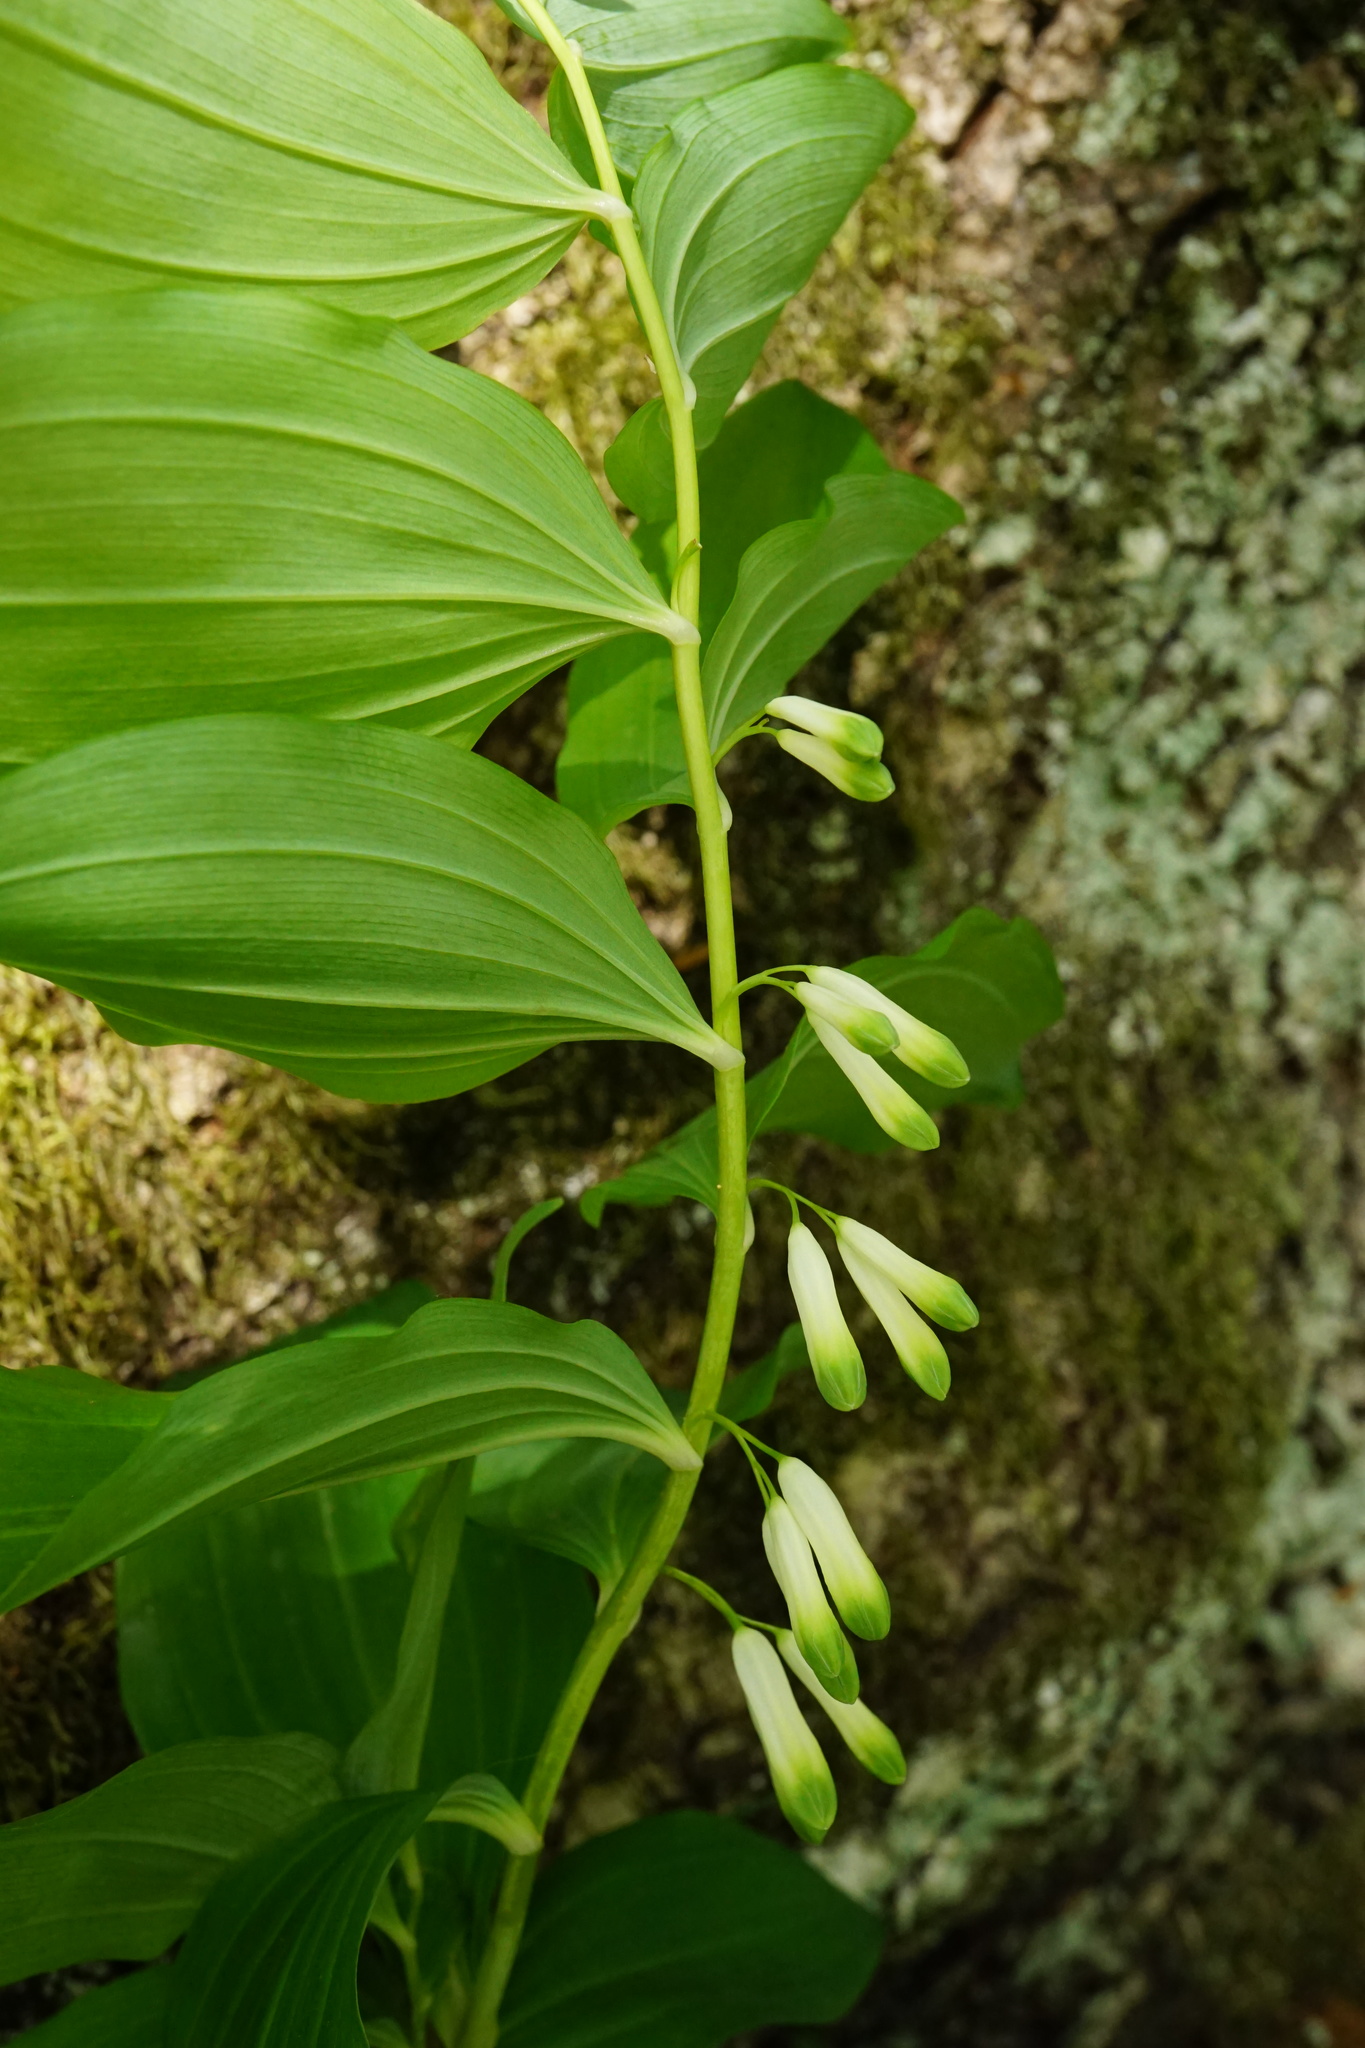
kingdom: Plantae
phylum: Tracheophyta
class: Liliopsida
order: Asparagales
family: Asparagaceae
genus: Polygonatum
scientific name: Polygonatum multiflorum
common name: Solomon's-seal
